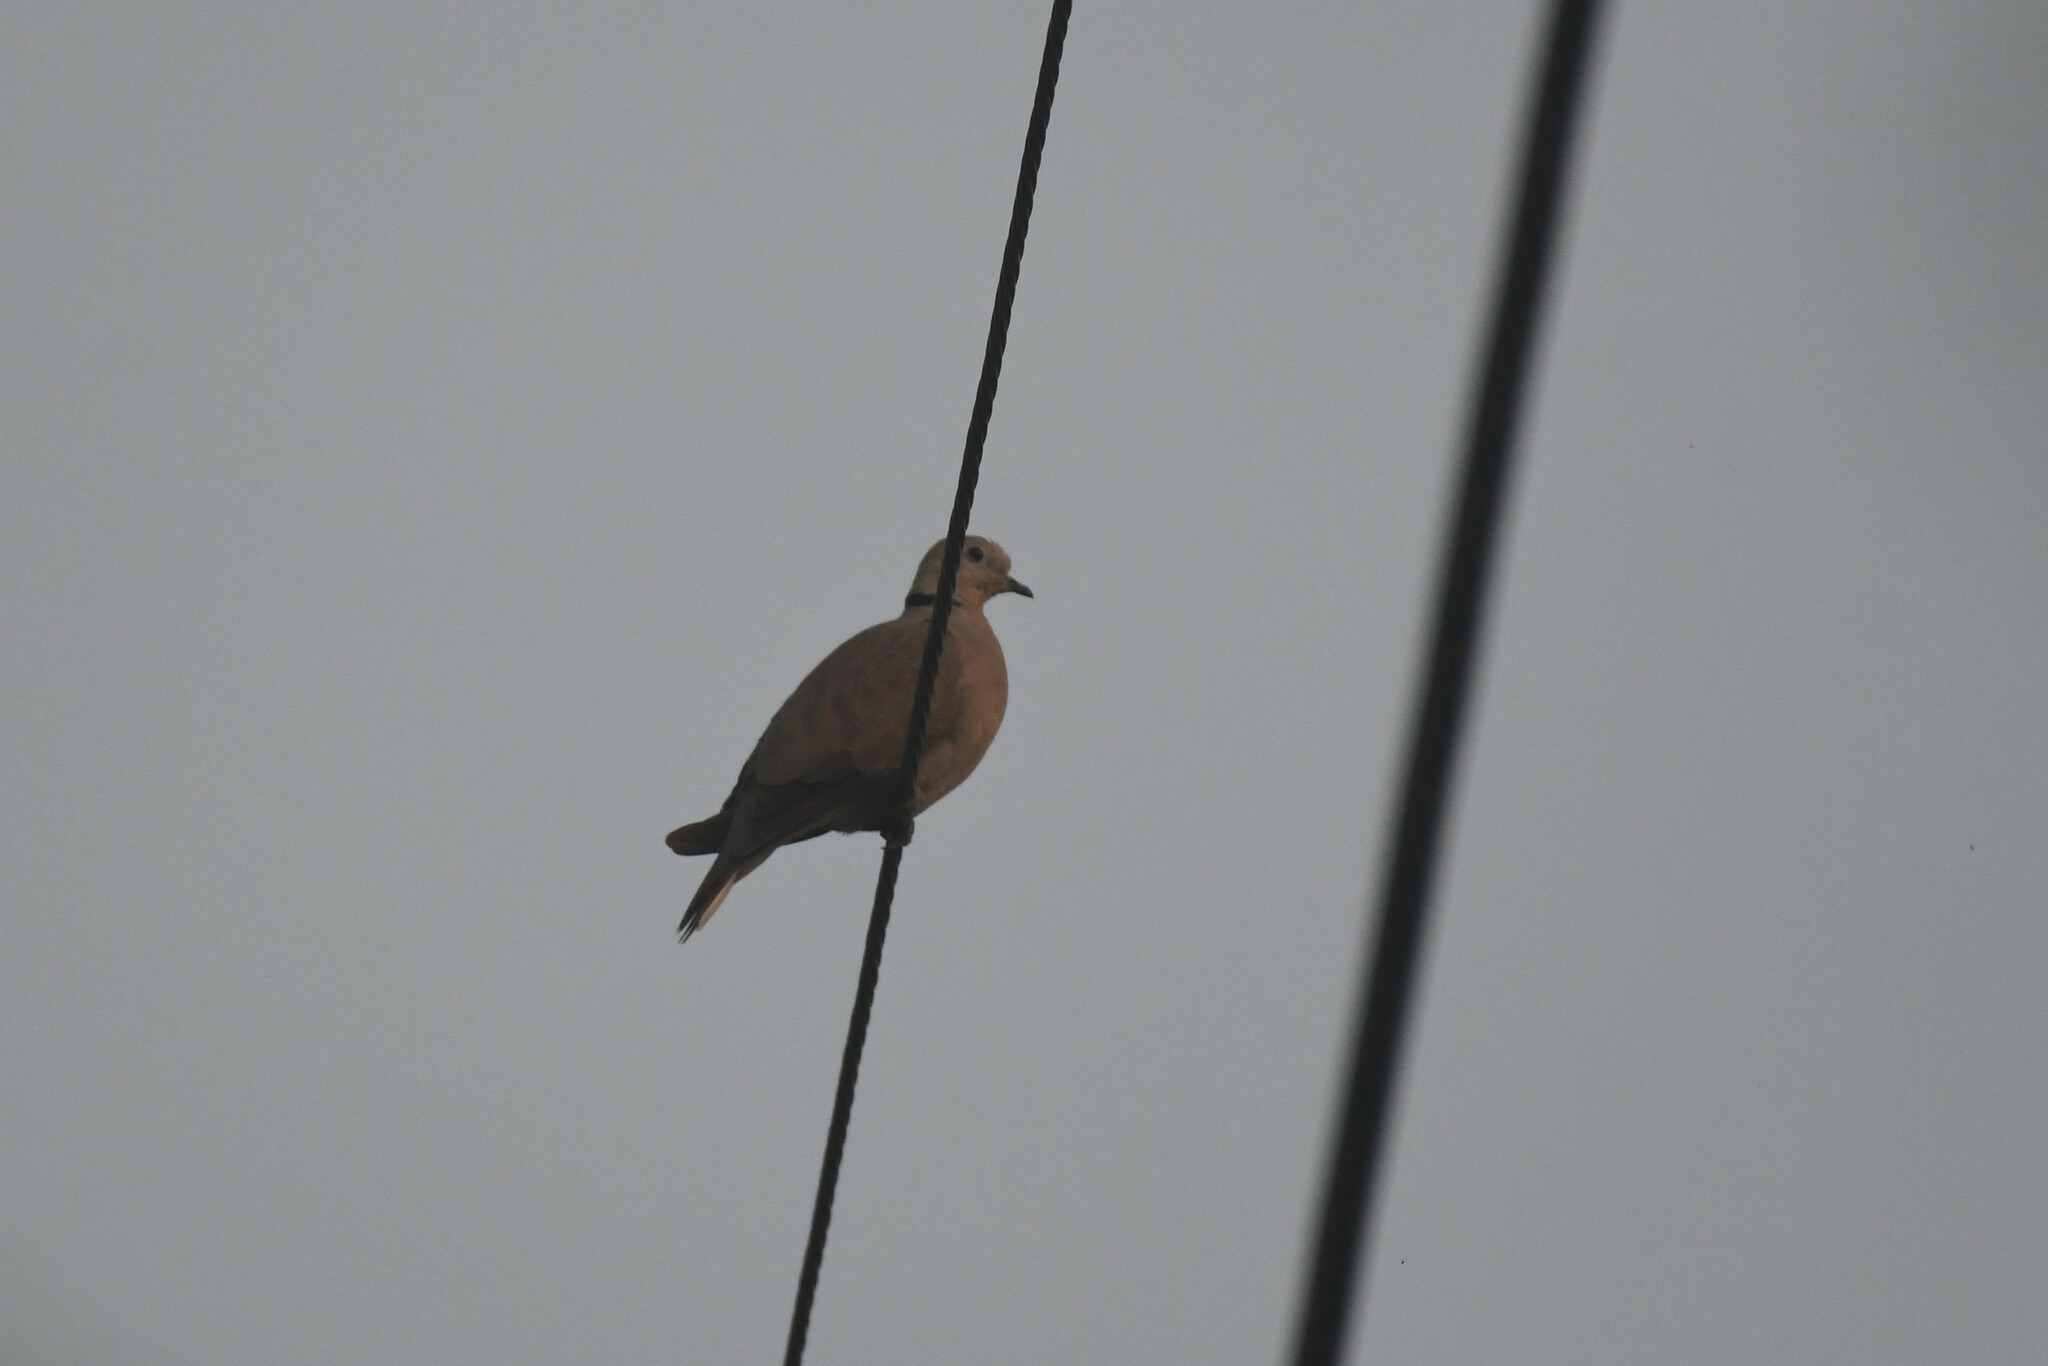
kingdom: Animalia
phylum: Chordata
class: Aves
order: Columbiformes
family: Columbidae
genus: Streptopelia
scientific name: Streptopelia tranquebarica
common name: Red turtle dove
